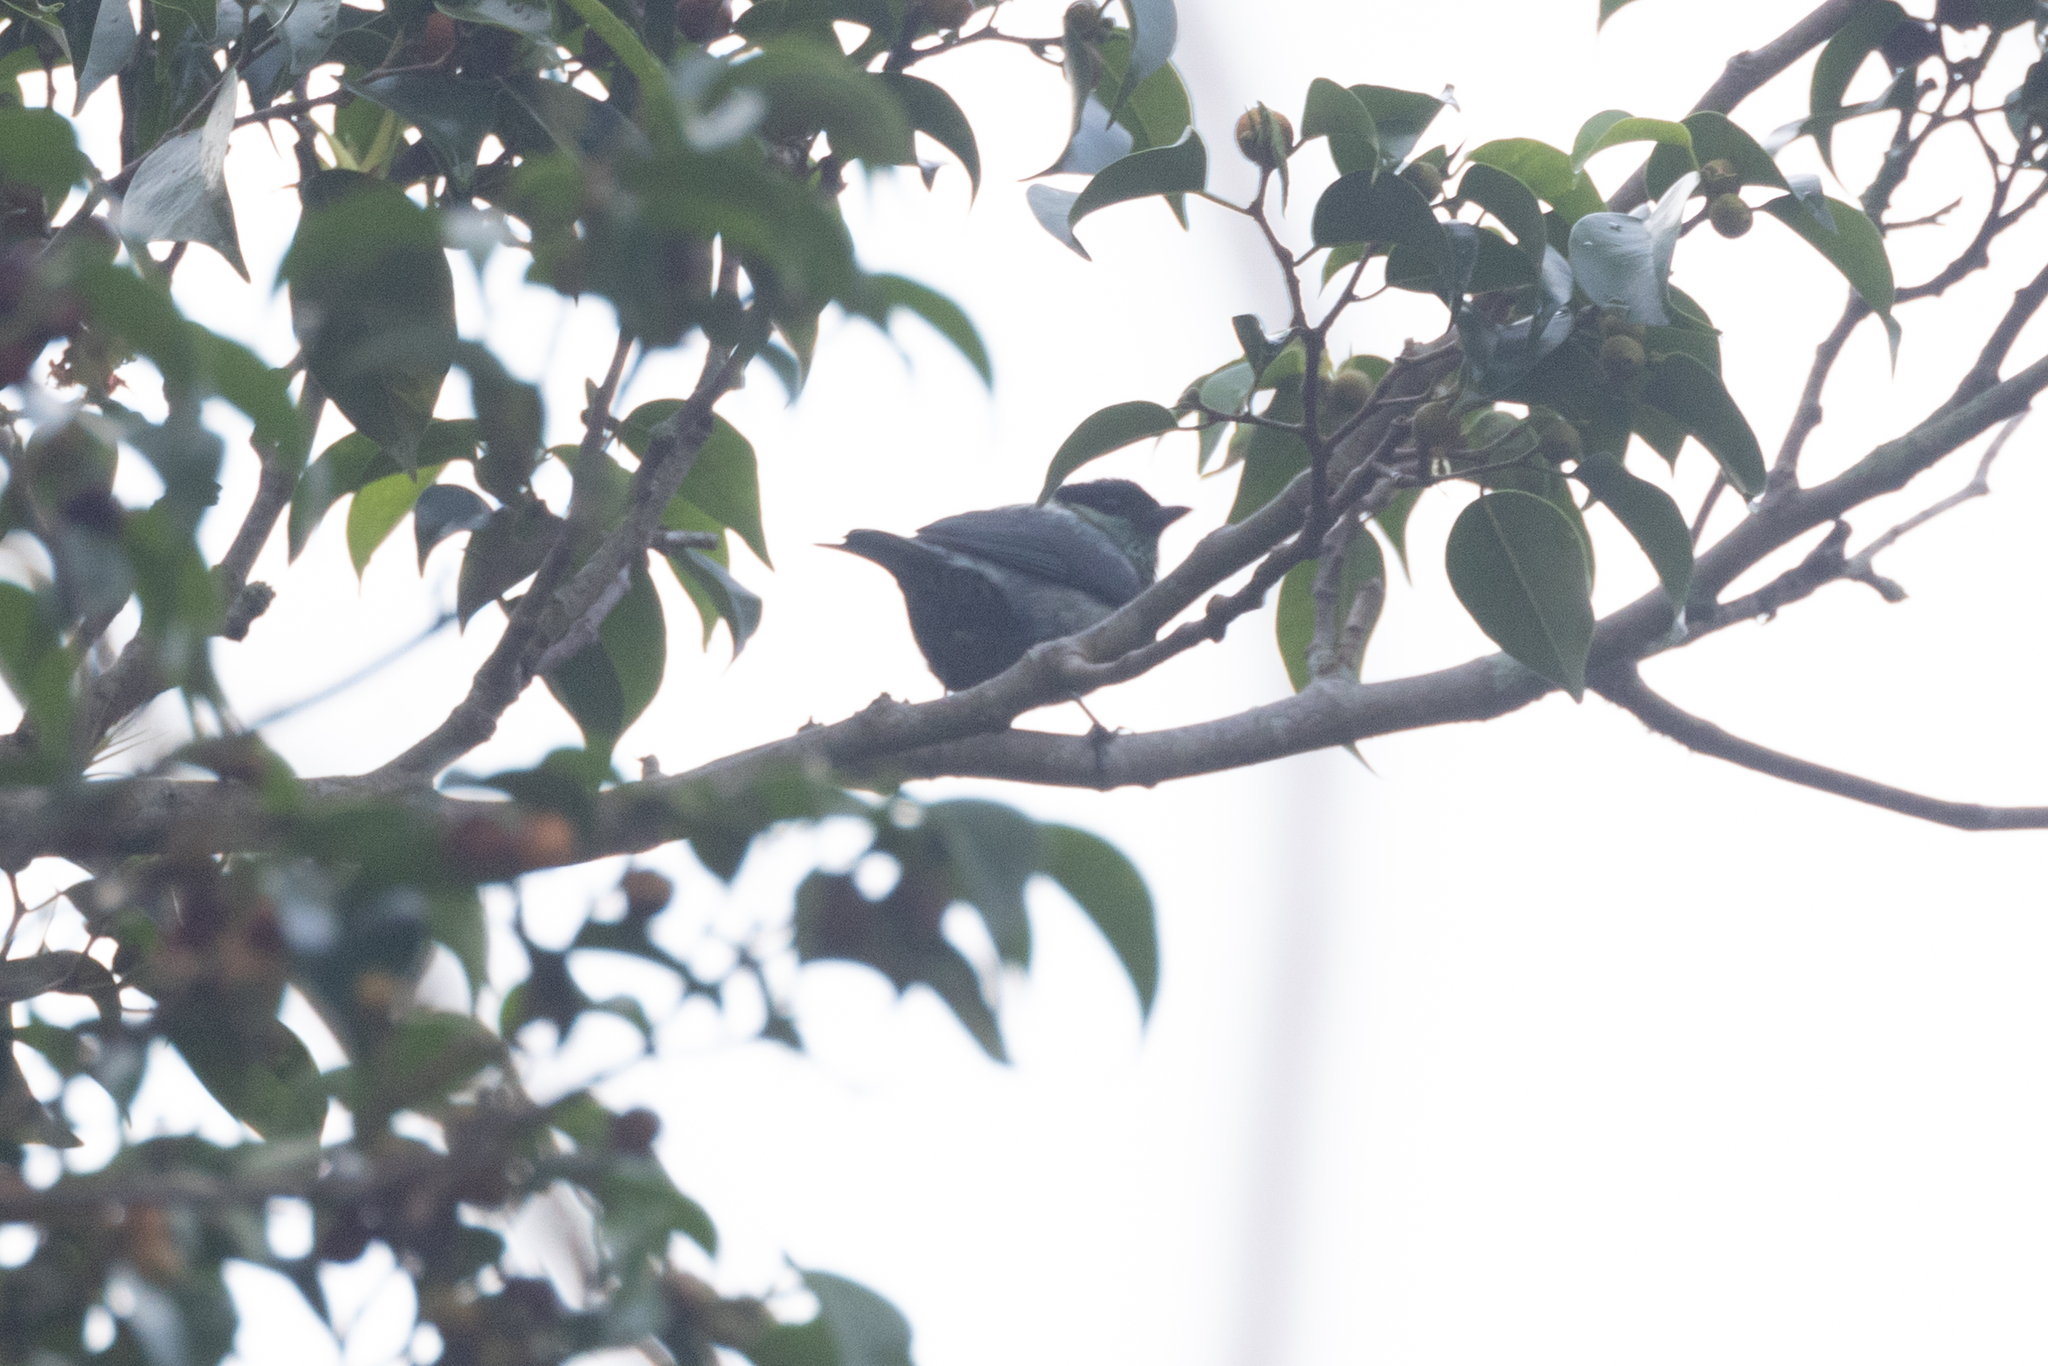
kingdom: Animalia
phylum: Chordata
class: Aves
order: Passeriformes
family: Thraupidae
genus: Stilpnia
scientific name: Stilpnia heinei
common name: Black-capped tanager
